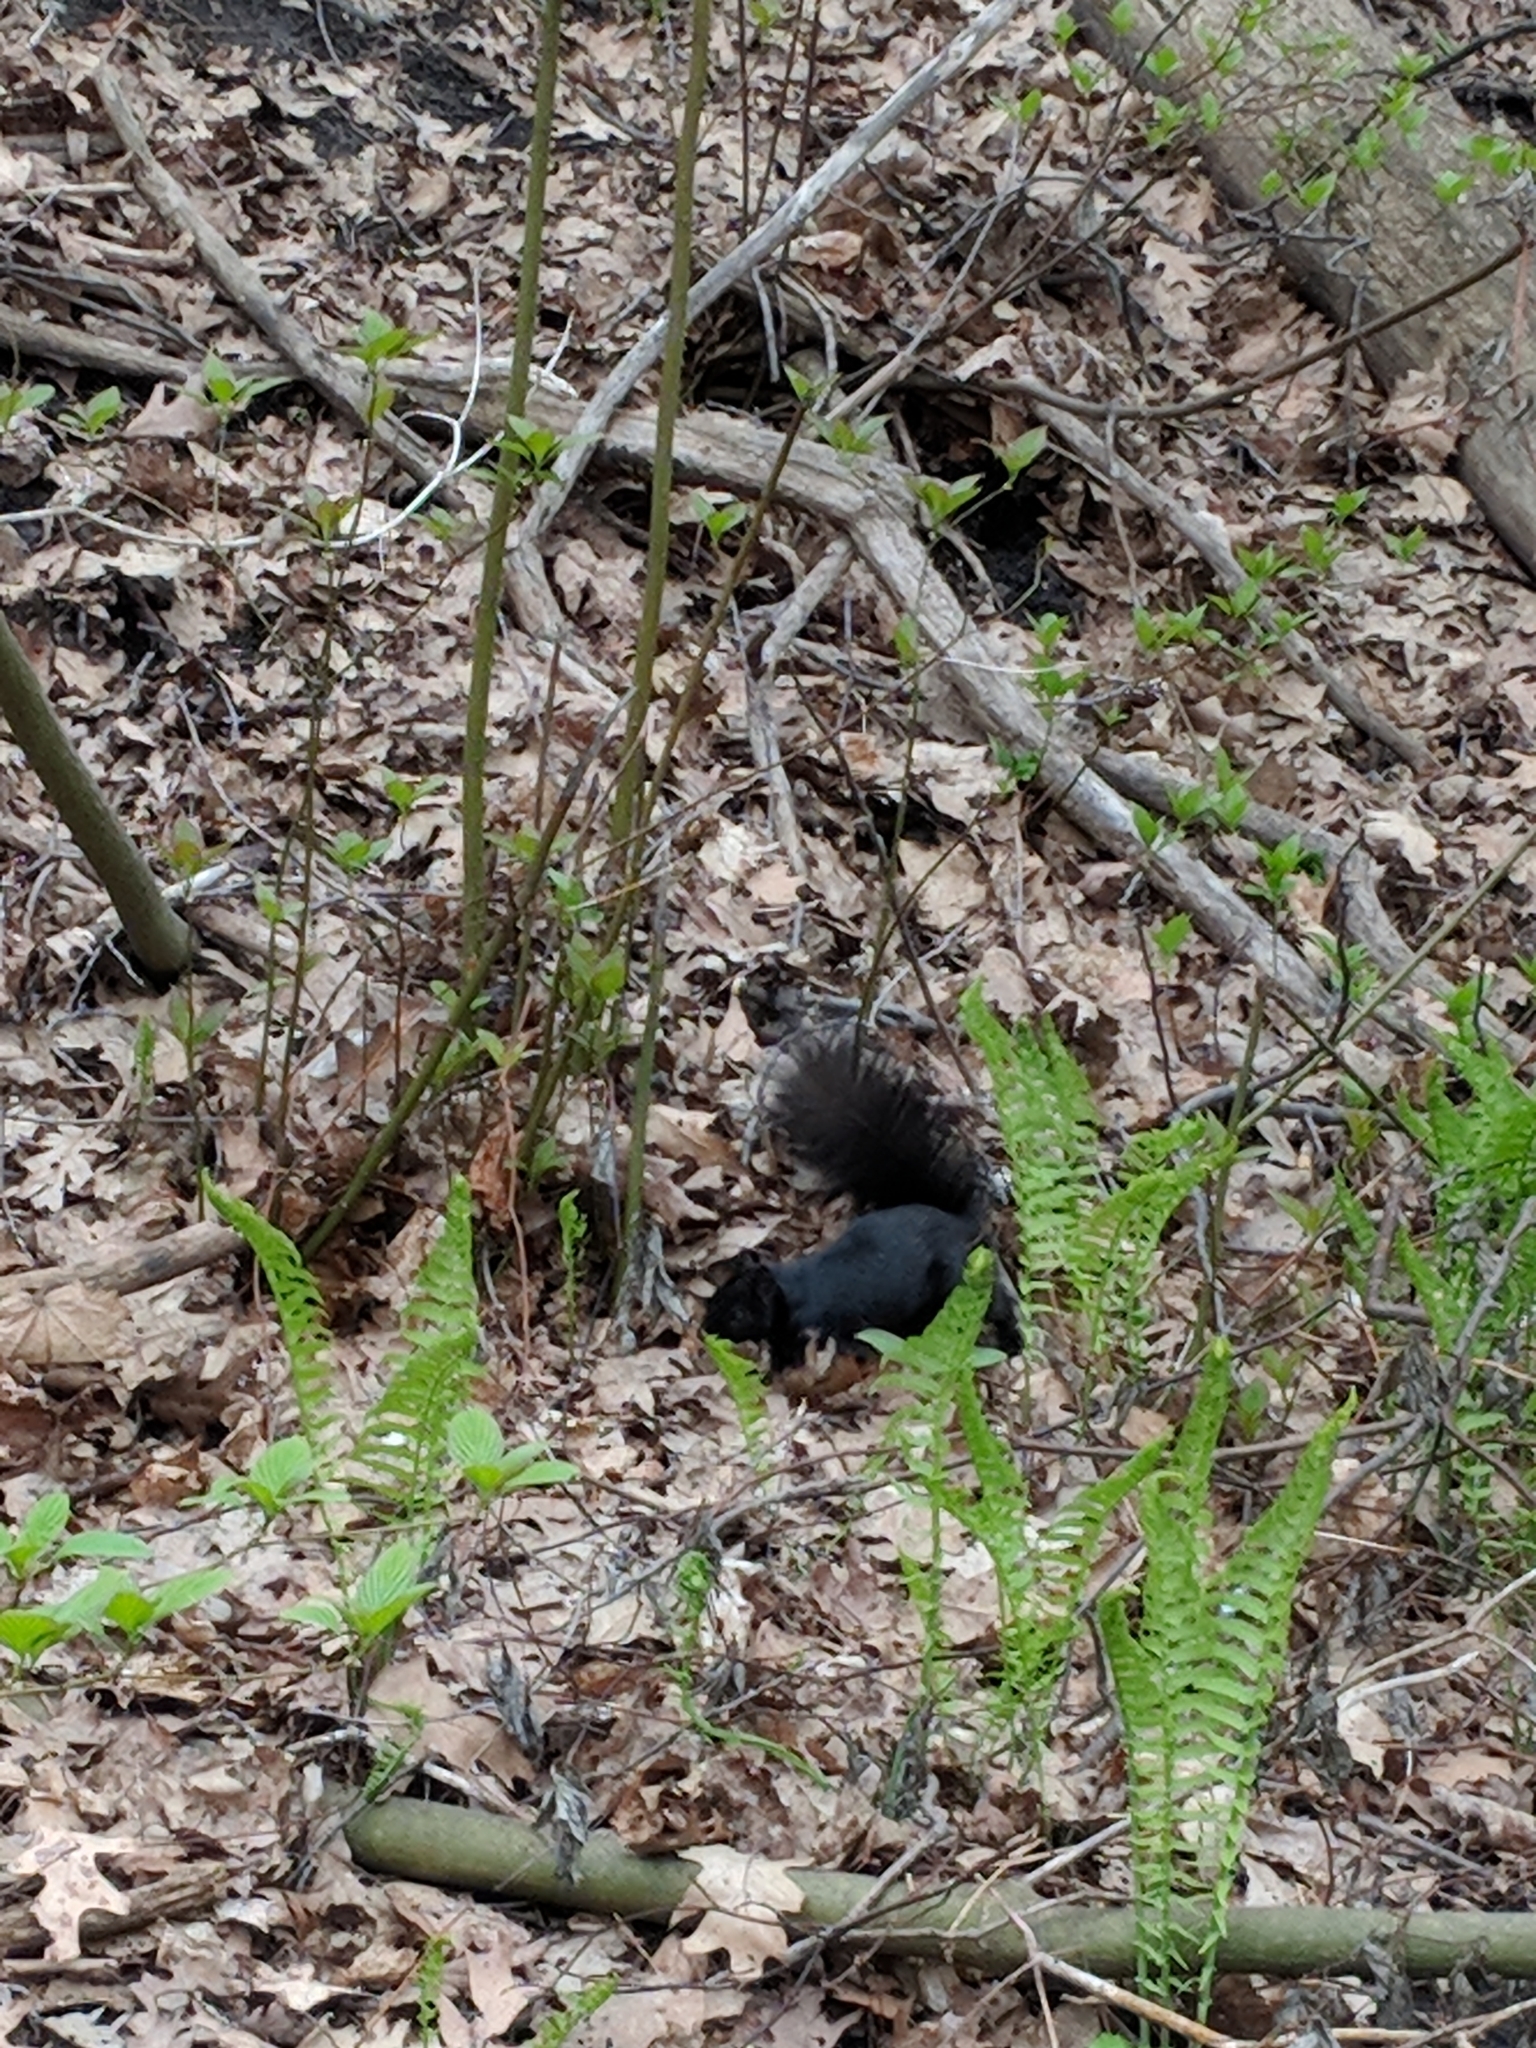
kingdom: Animalia
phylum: Chordata
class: Mammalia
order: Rodentia
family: Sciuridae
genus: Sciurus
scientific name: Sciurus carolinensis
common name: Eastern gray squirrel
